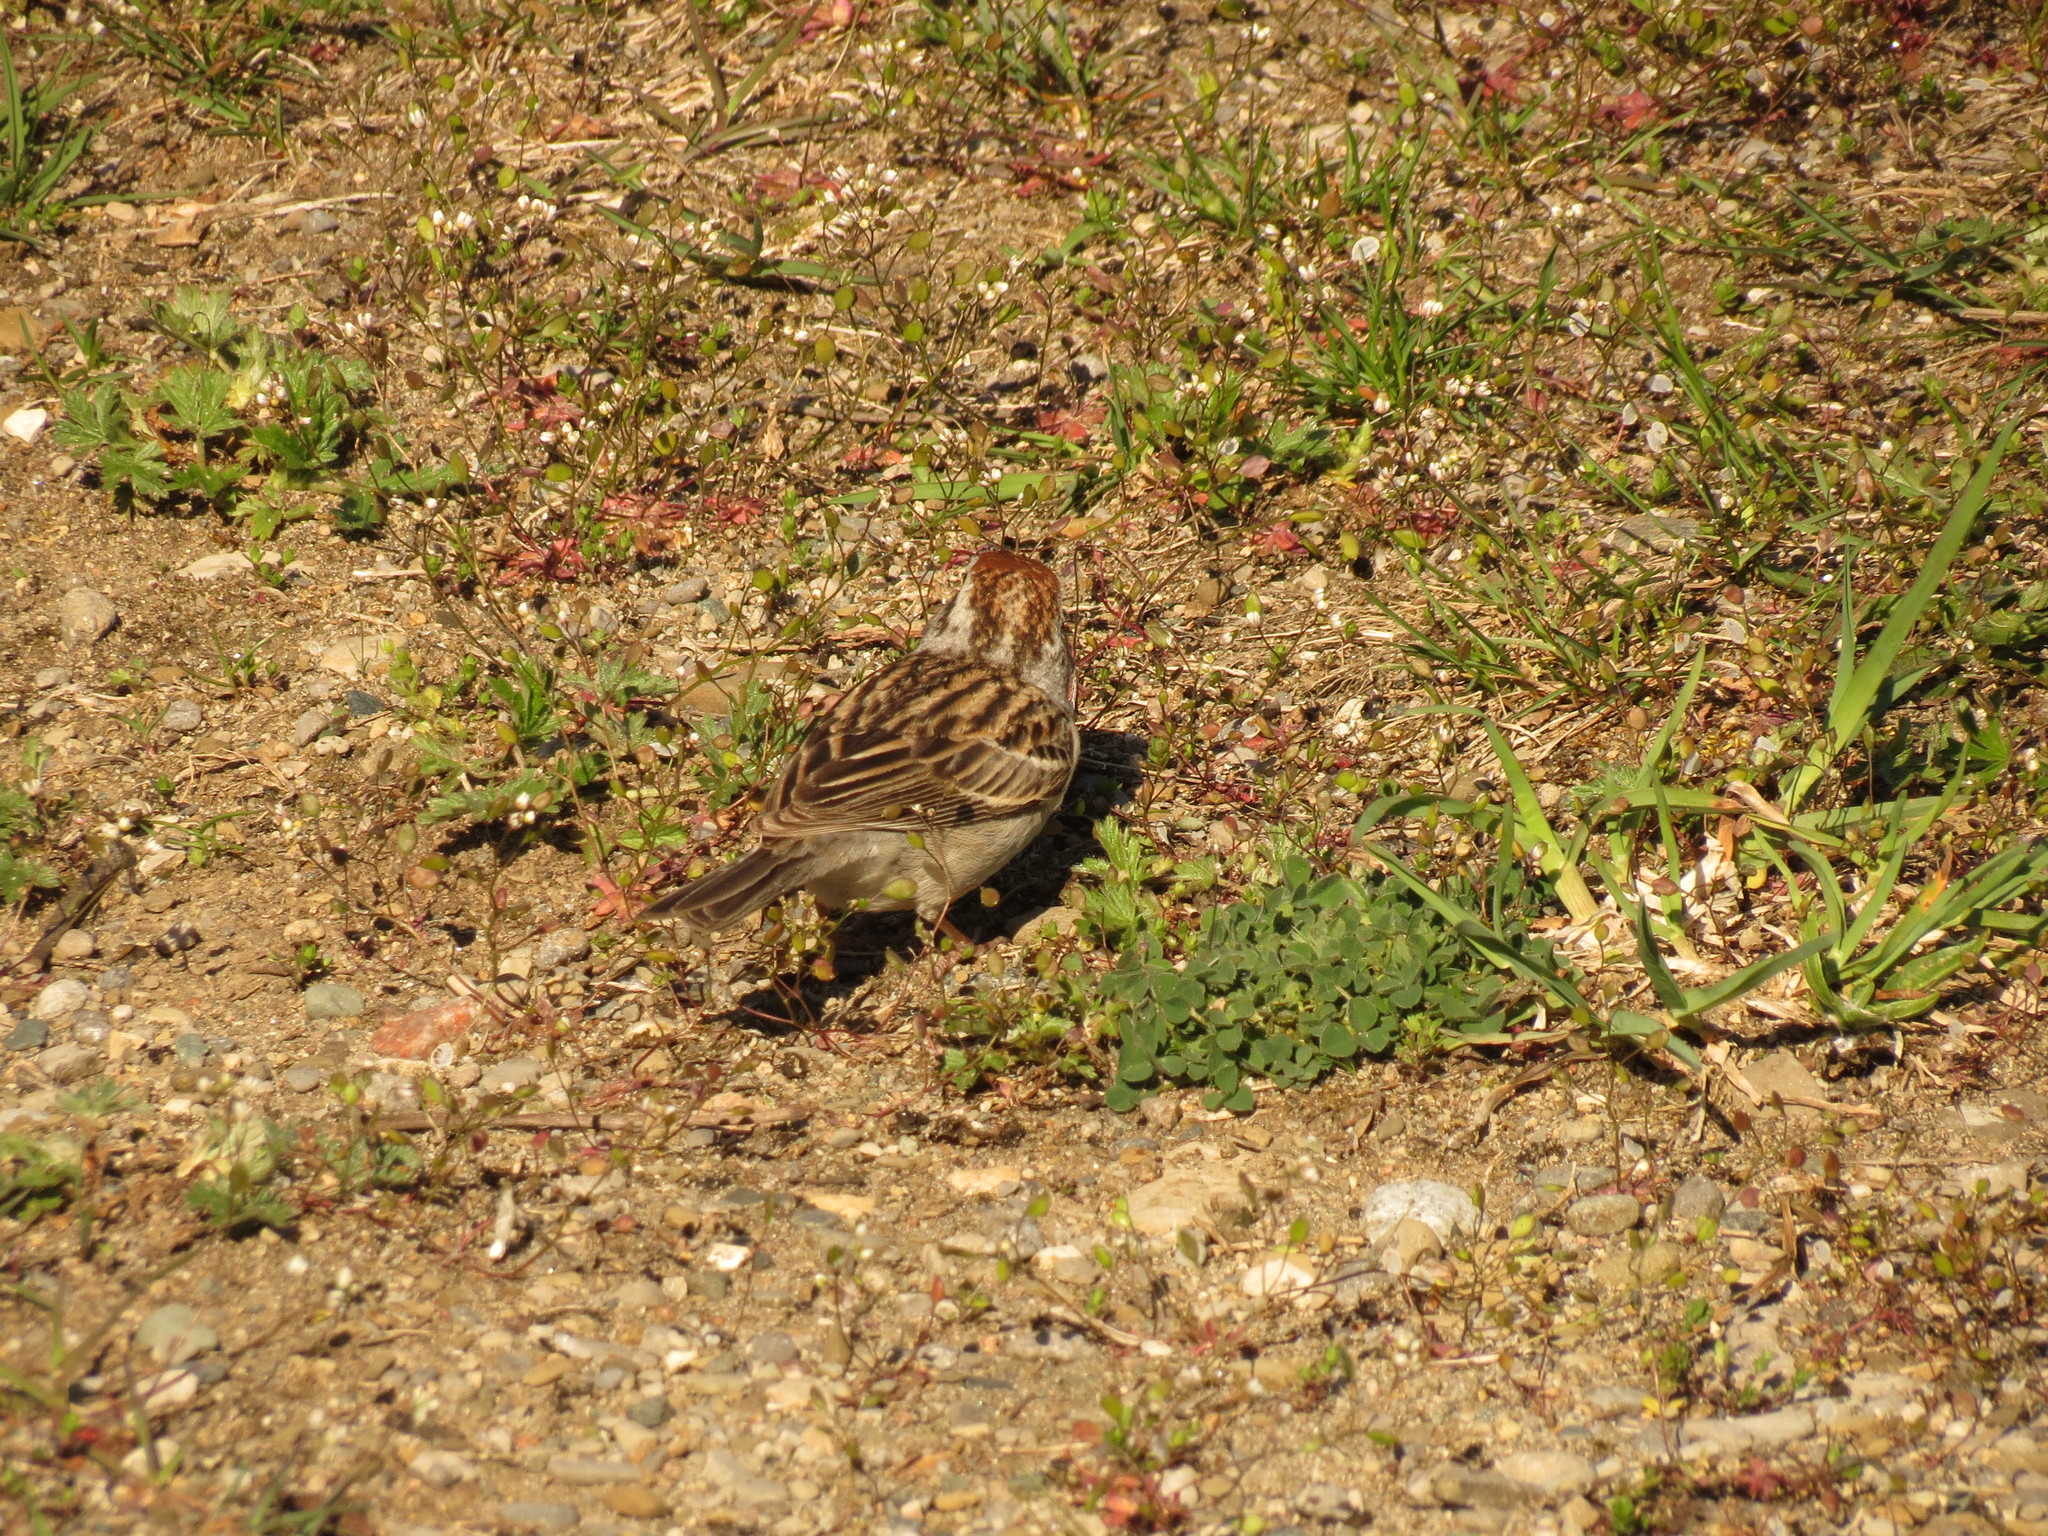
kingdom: Animalia
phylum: Chordata
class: Aves
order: Passeriformes
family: Passerellidae
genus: Spizella
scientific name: Spizella passerina
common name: Chipping sparrow
